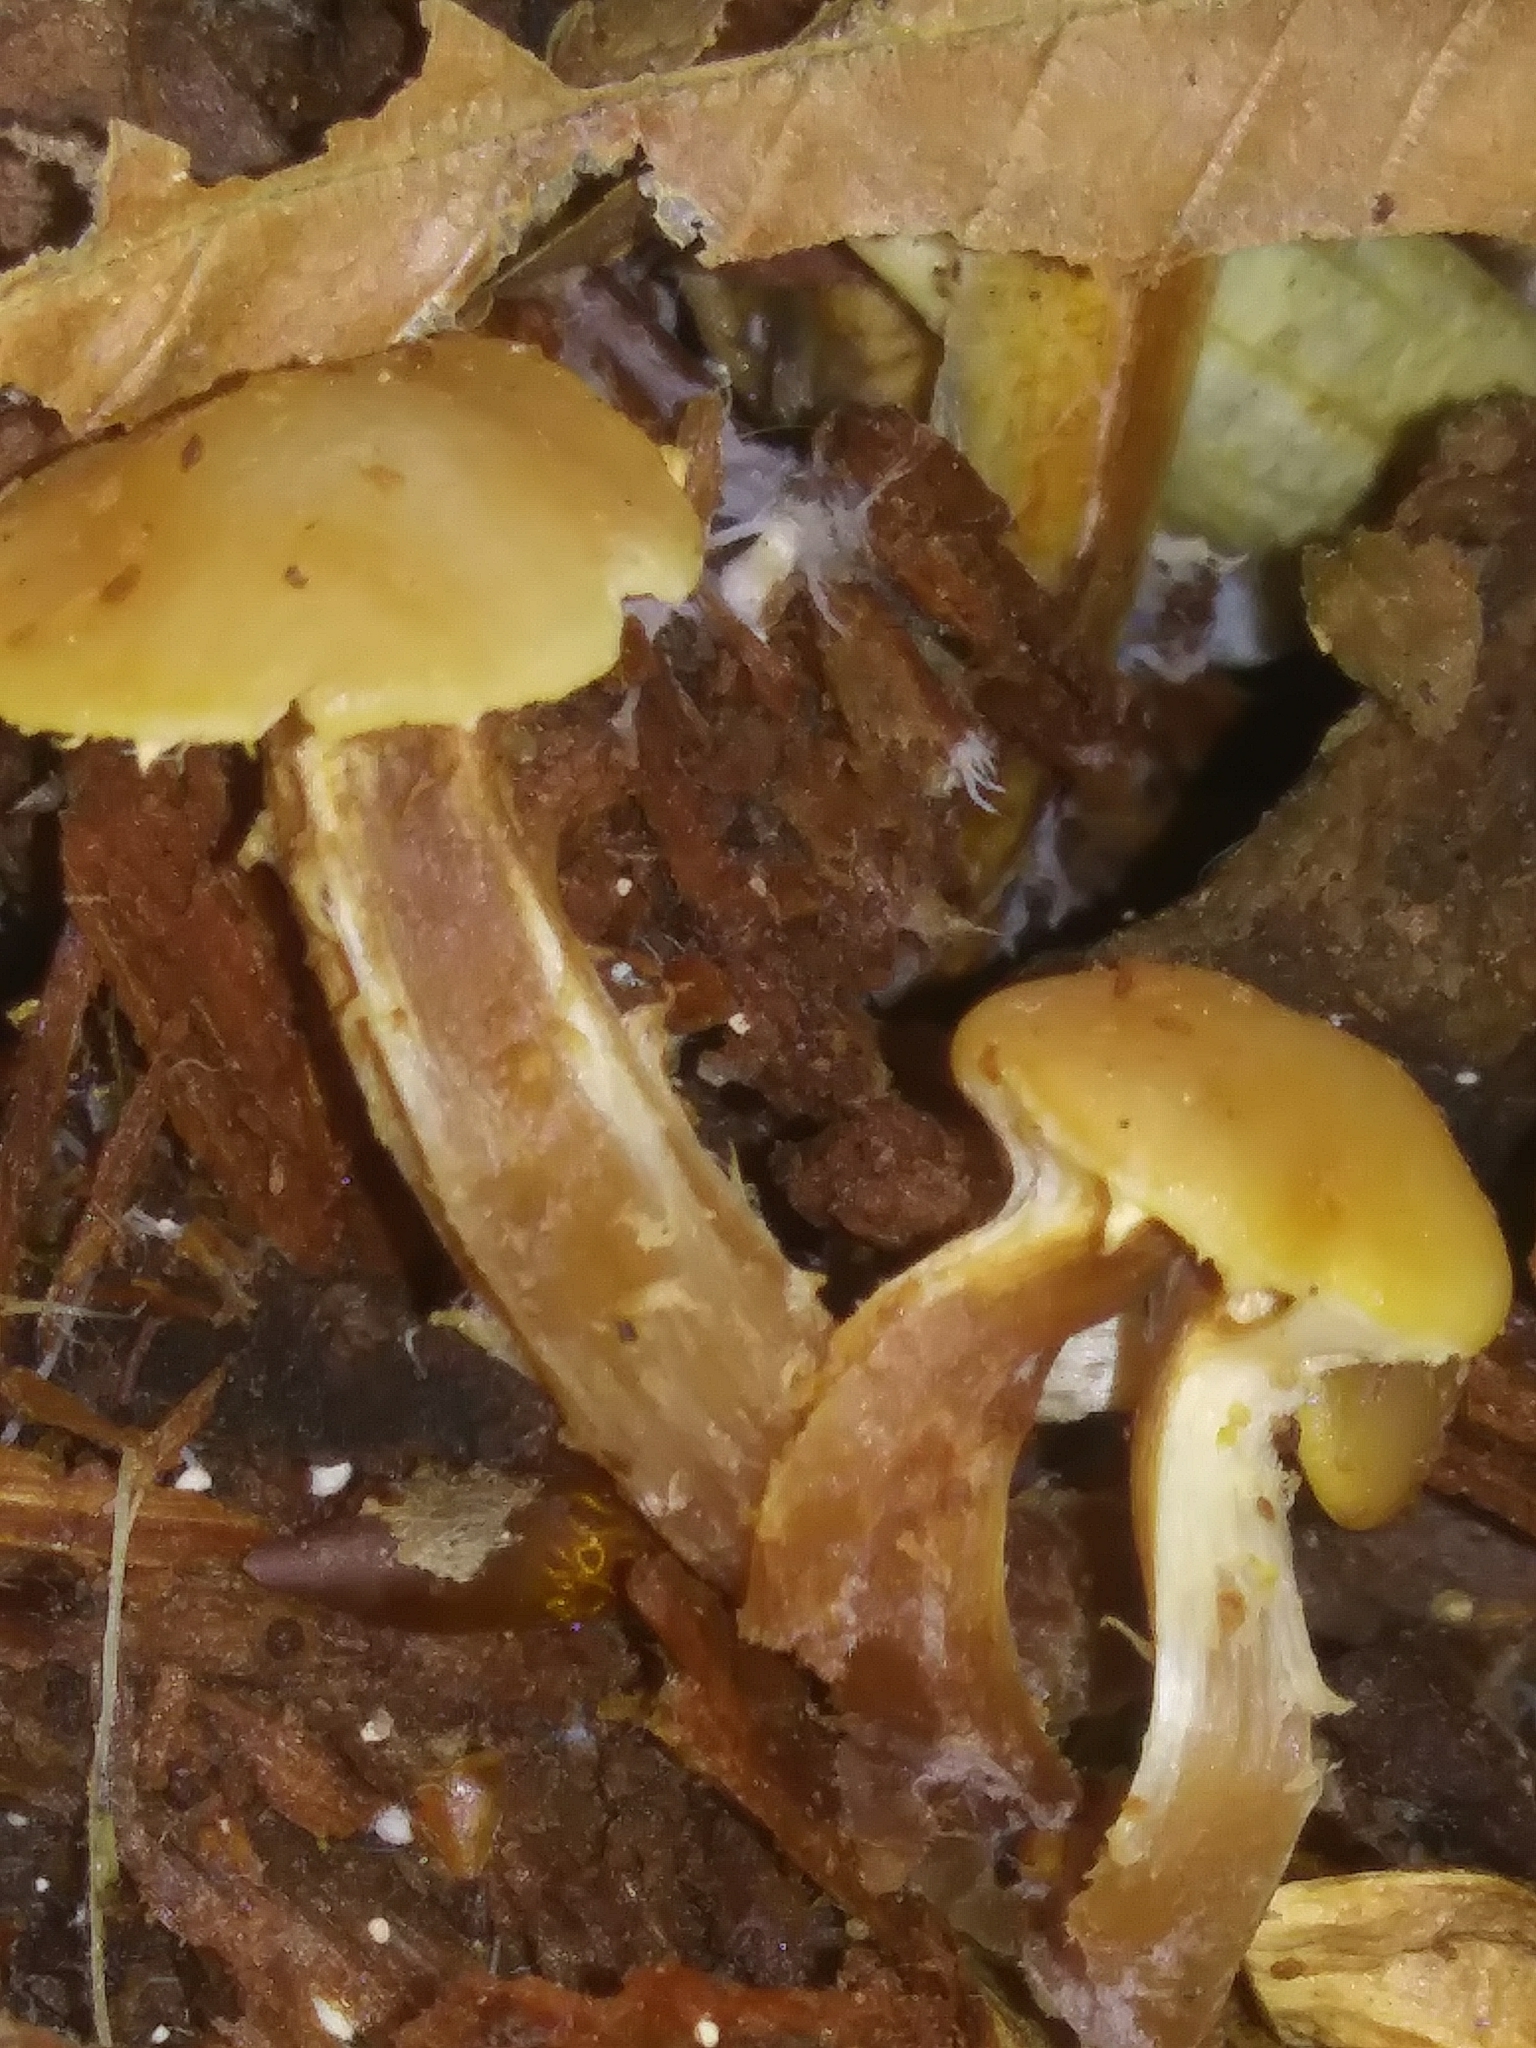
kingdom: Fungi
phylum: Basidiomycota
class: Agaricomycetes
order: Agaricales
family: Hymenogastraceae
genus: Galerina
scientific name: Galerina marginata
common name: Funeral bell
